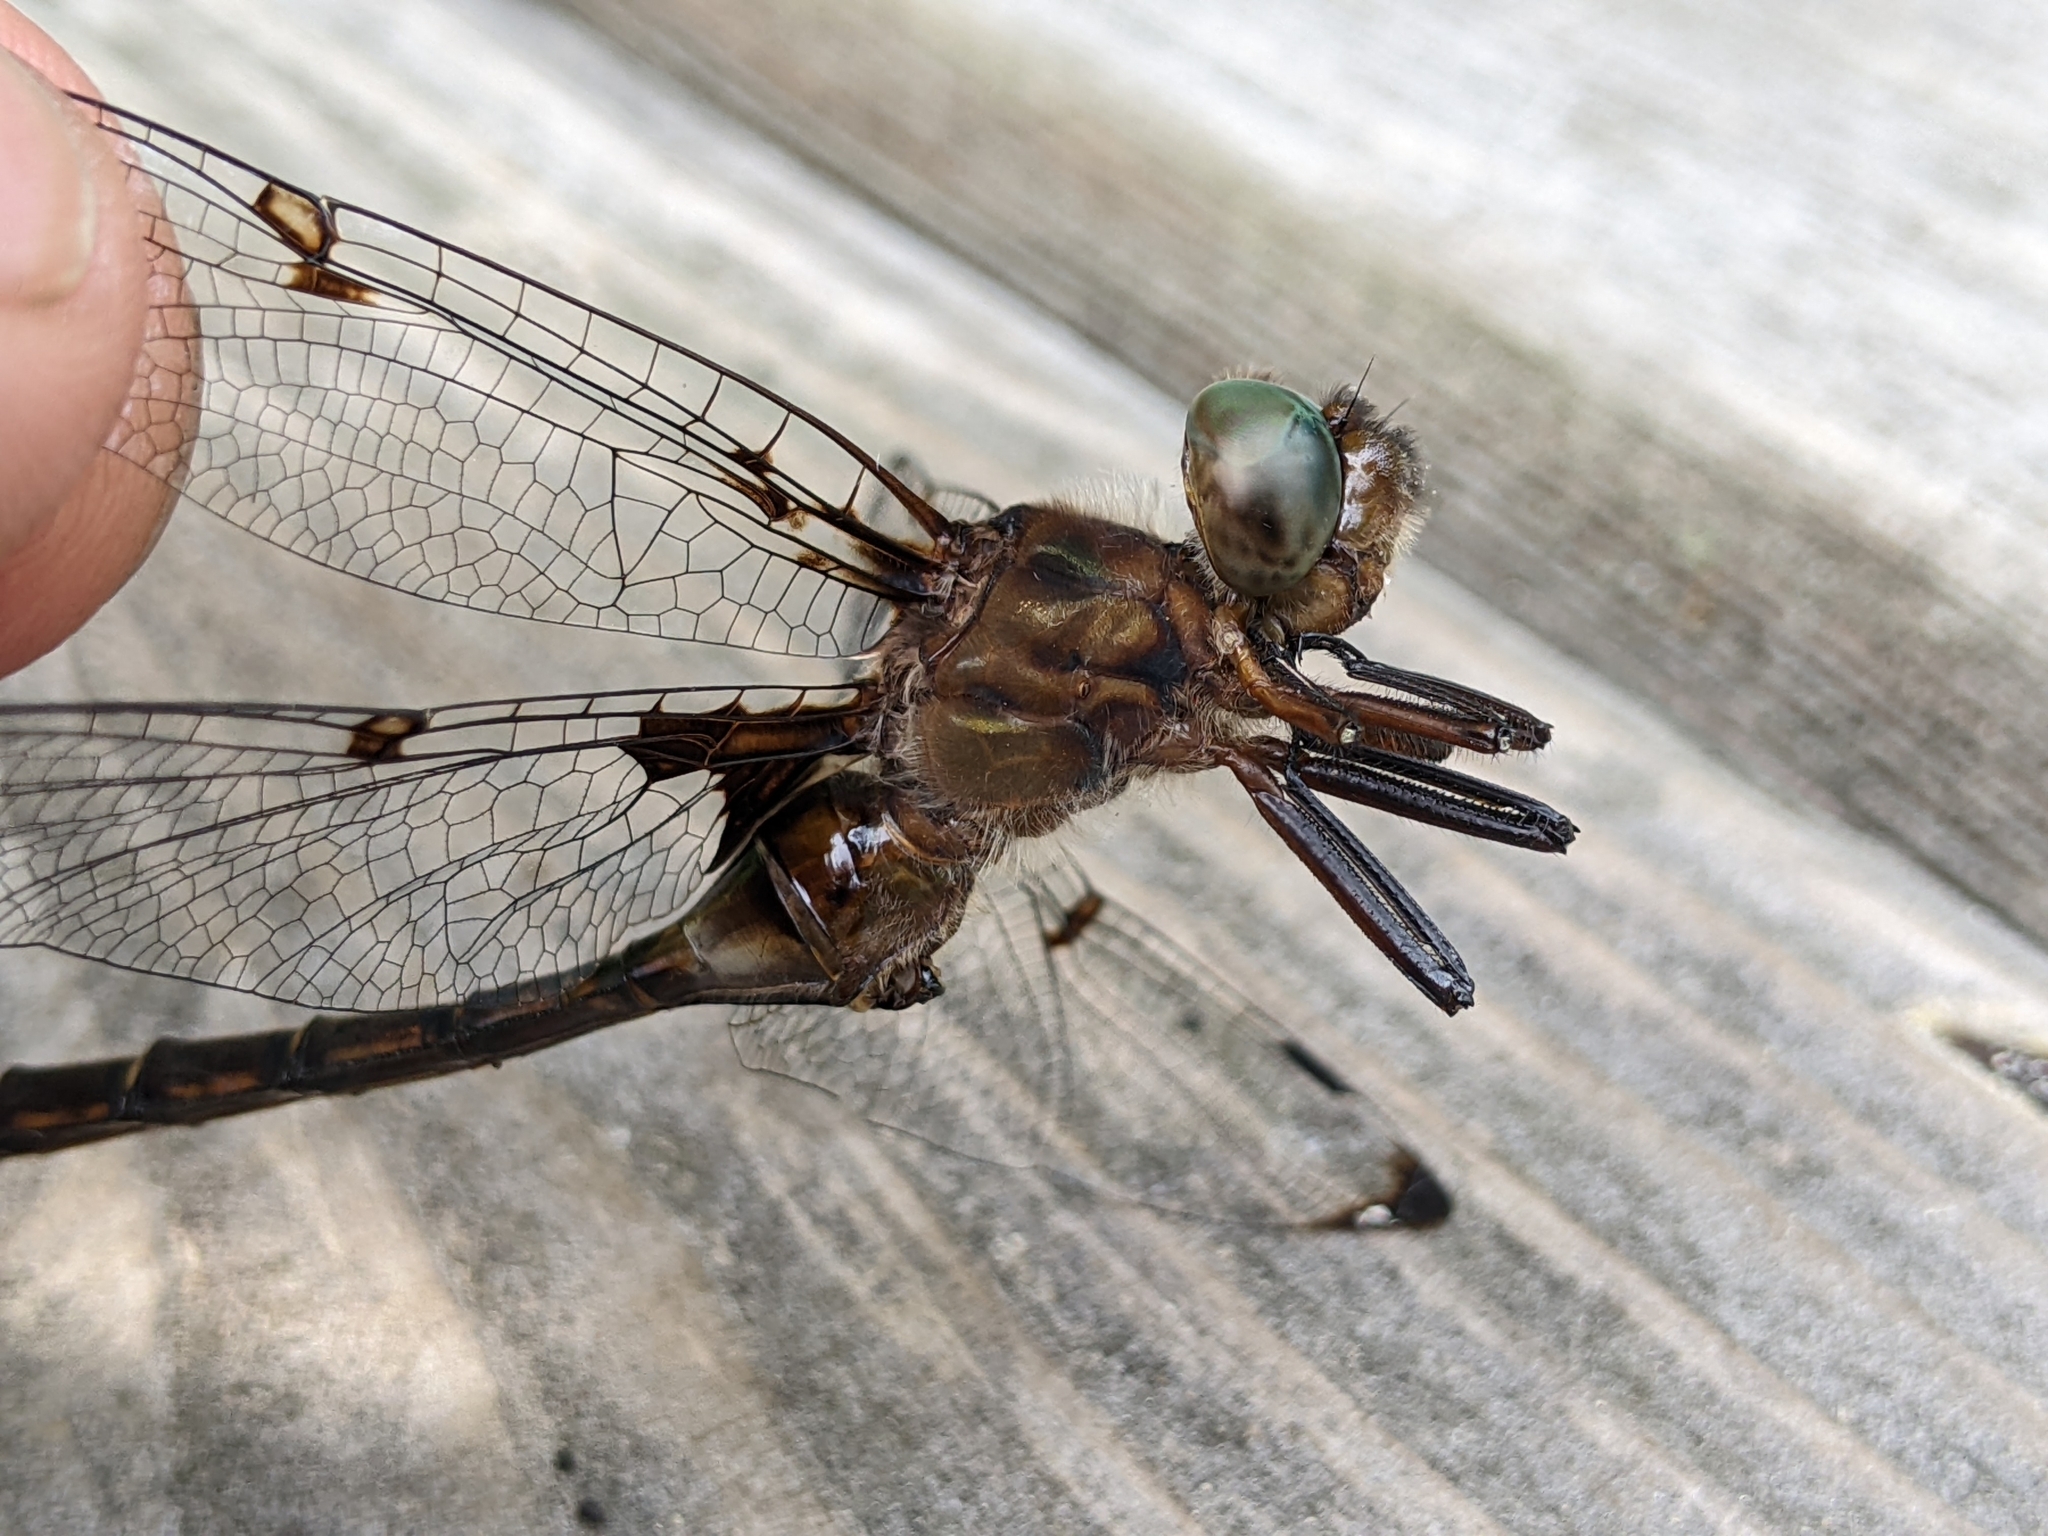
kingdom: Animalia
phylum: Arthropoda
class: Insecta
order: Odonata
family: Corduliidae
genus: Epitheca
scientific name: Epitheca princeps
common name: Prince baskettail
